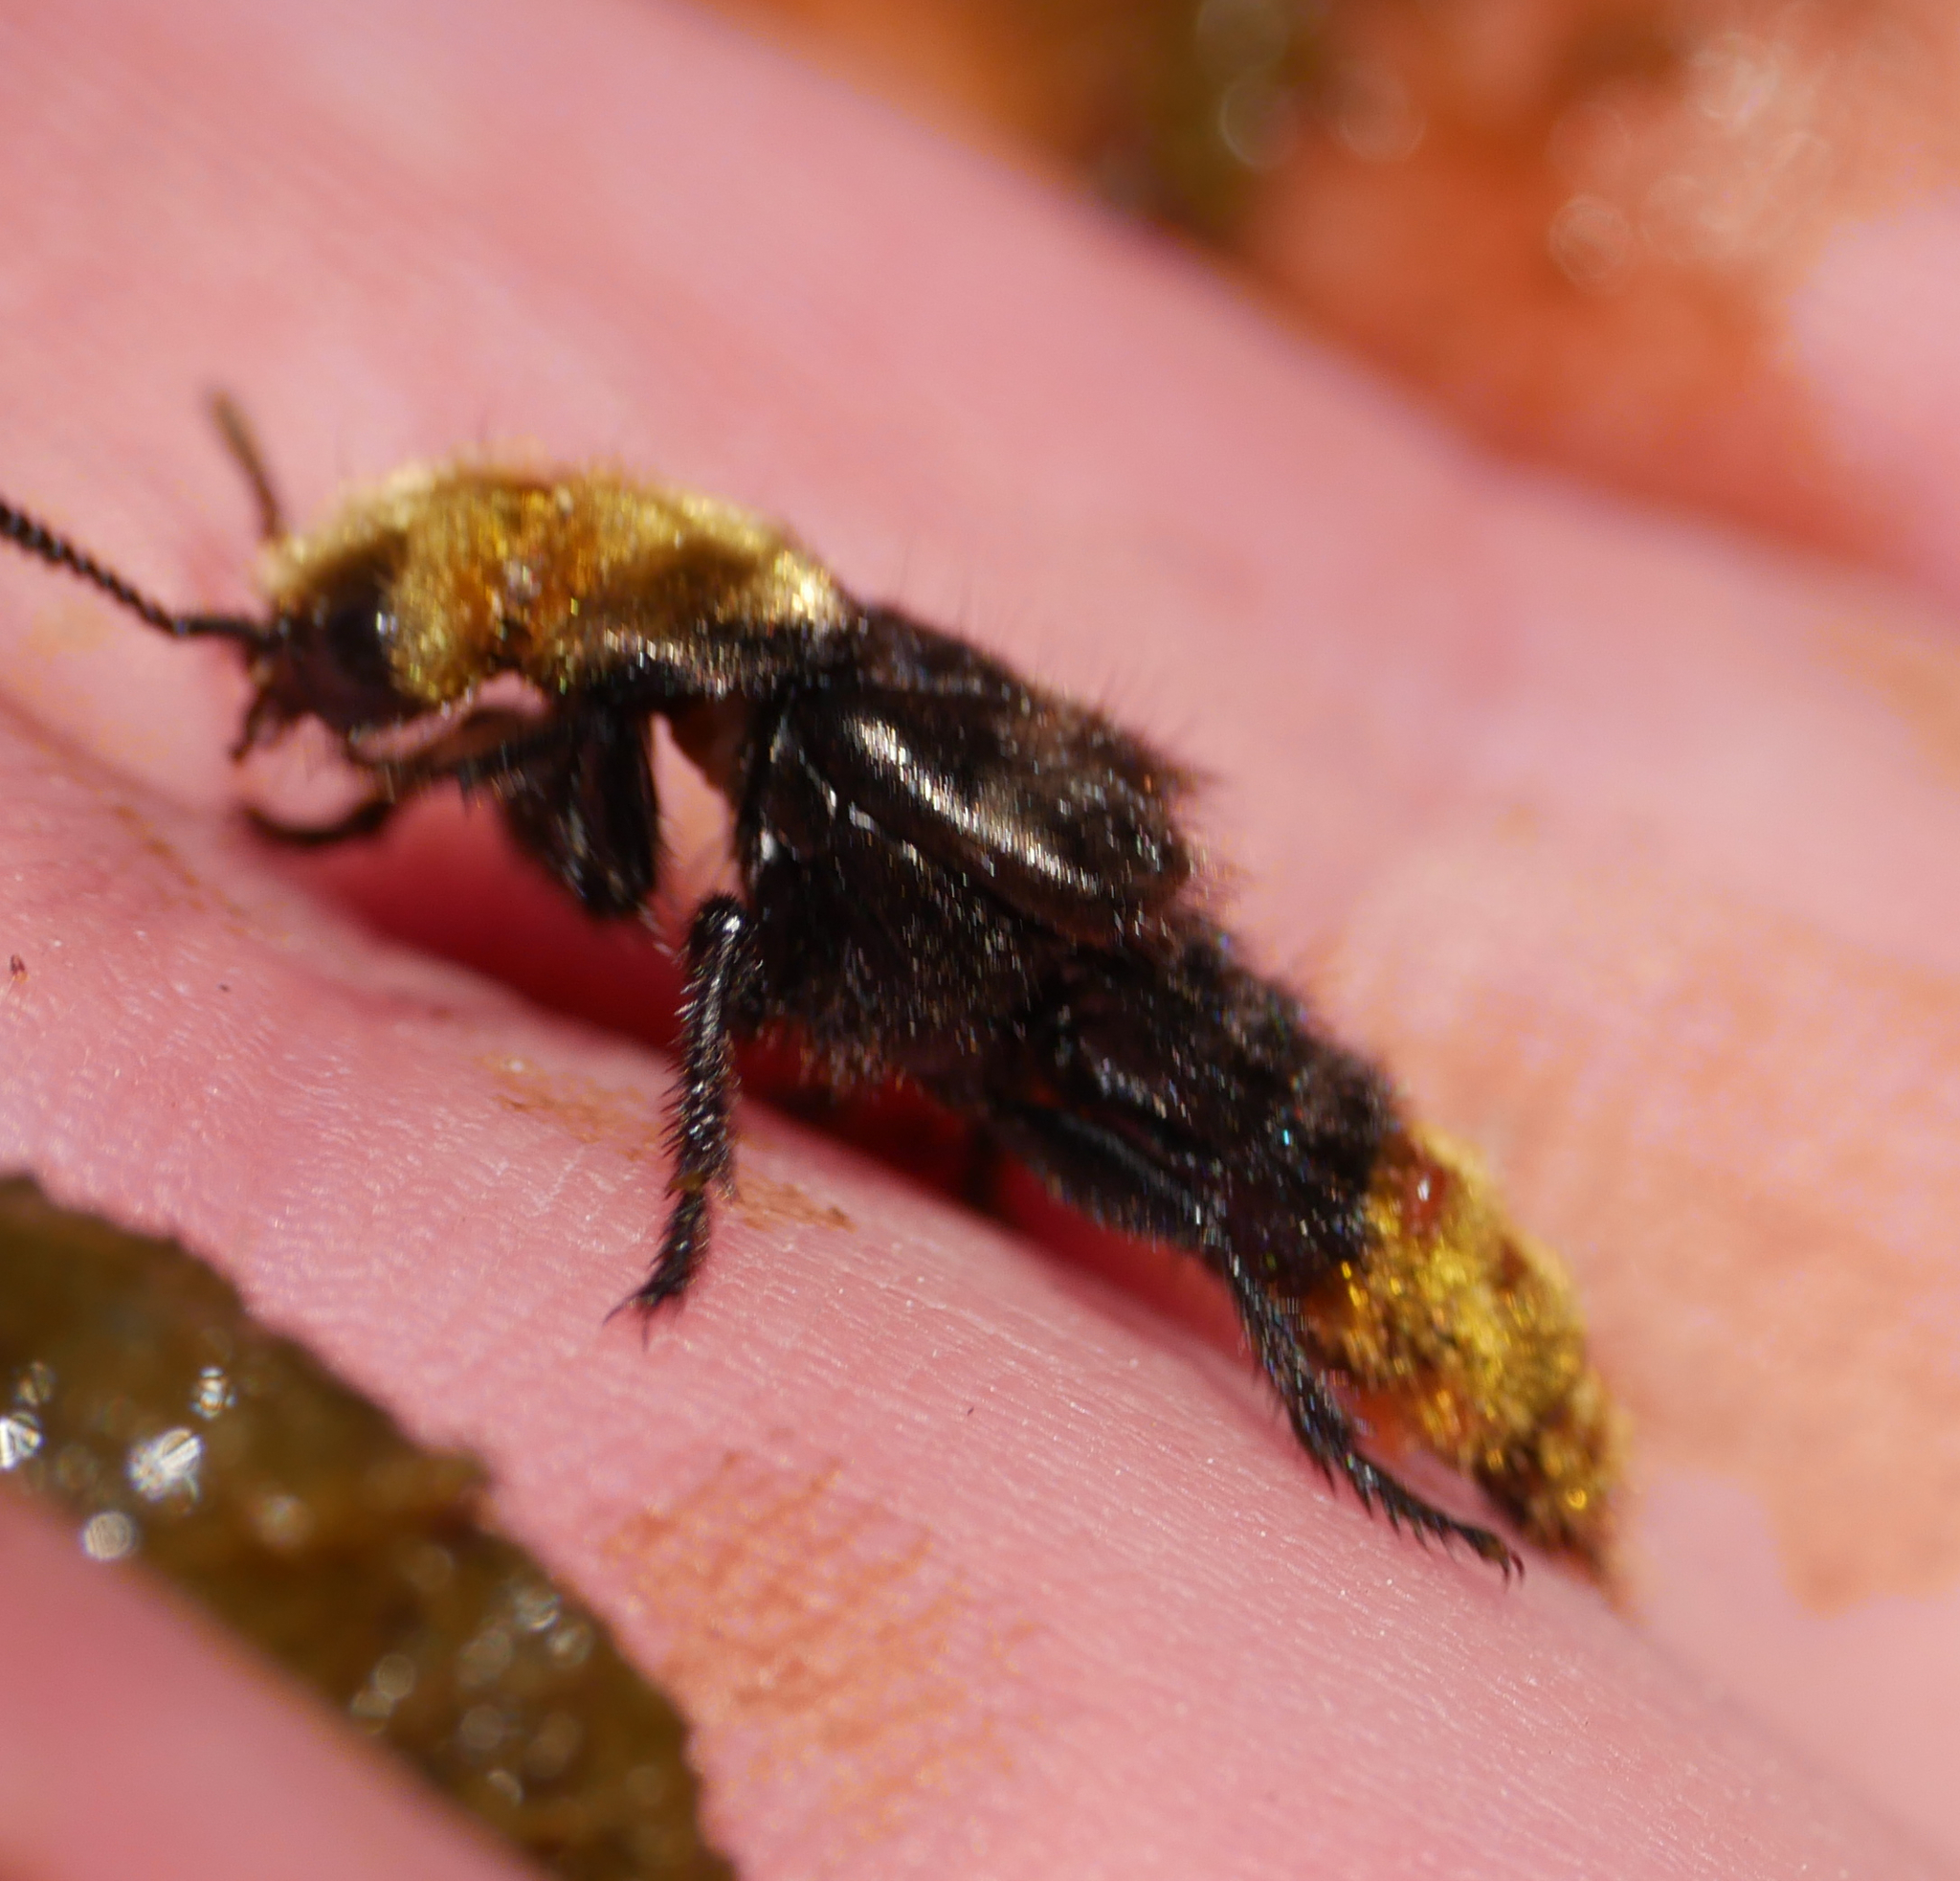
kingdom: Animalia
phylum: Arthropoda
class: Insecta
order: Coleoptera
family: Staphylinidae
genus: Emus
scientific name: Emus hirtus
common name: Hairy rove-beetle
